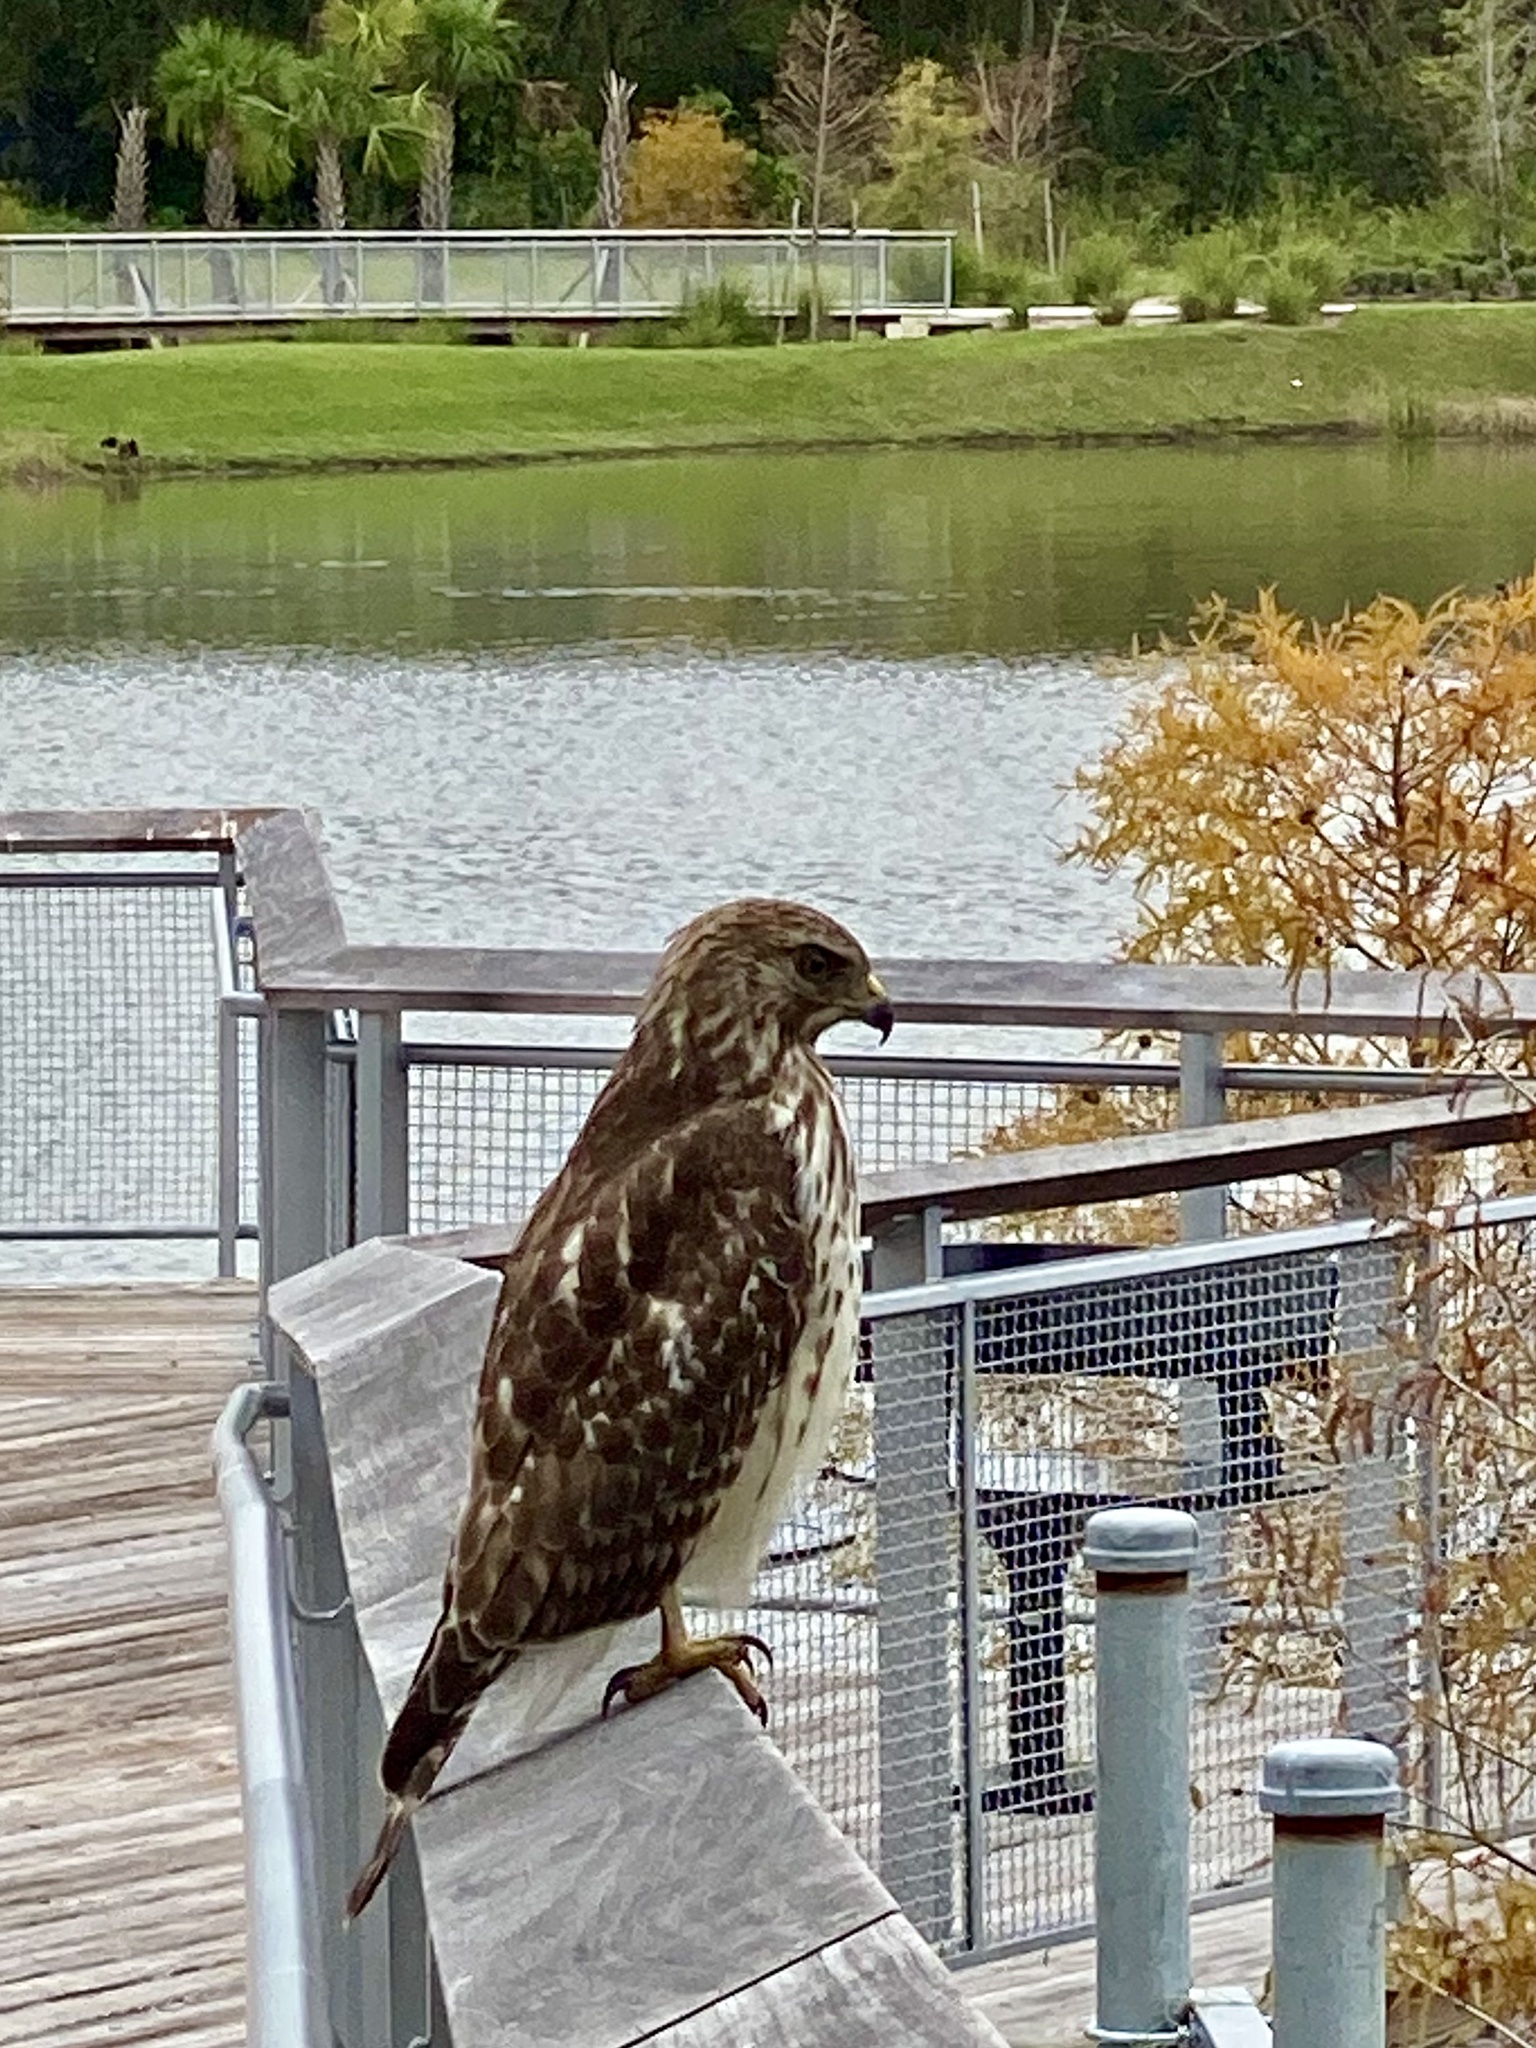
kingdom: Animalia
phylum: Chordata
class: Aves
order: Accipitriformes
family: Accipitridae
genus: Buteo
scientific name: Buteo lineatus
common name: Red-shouldered hawk
